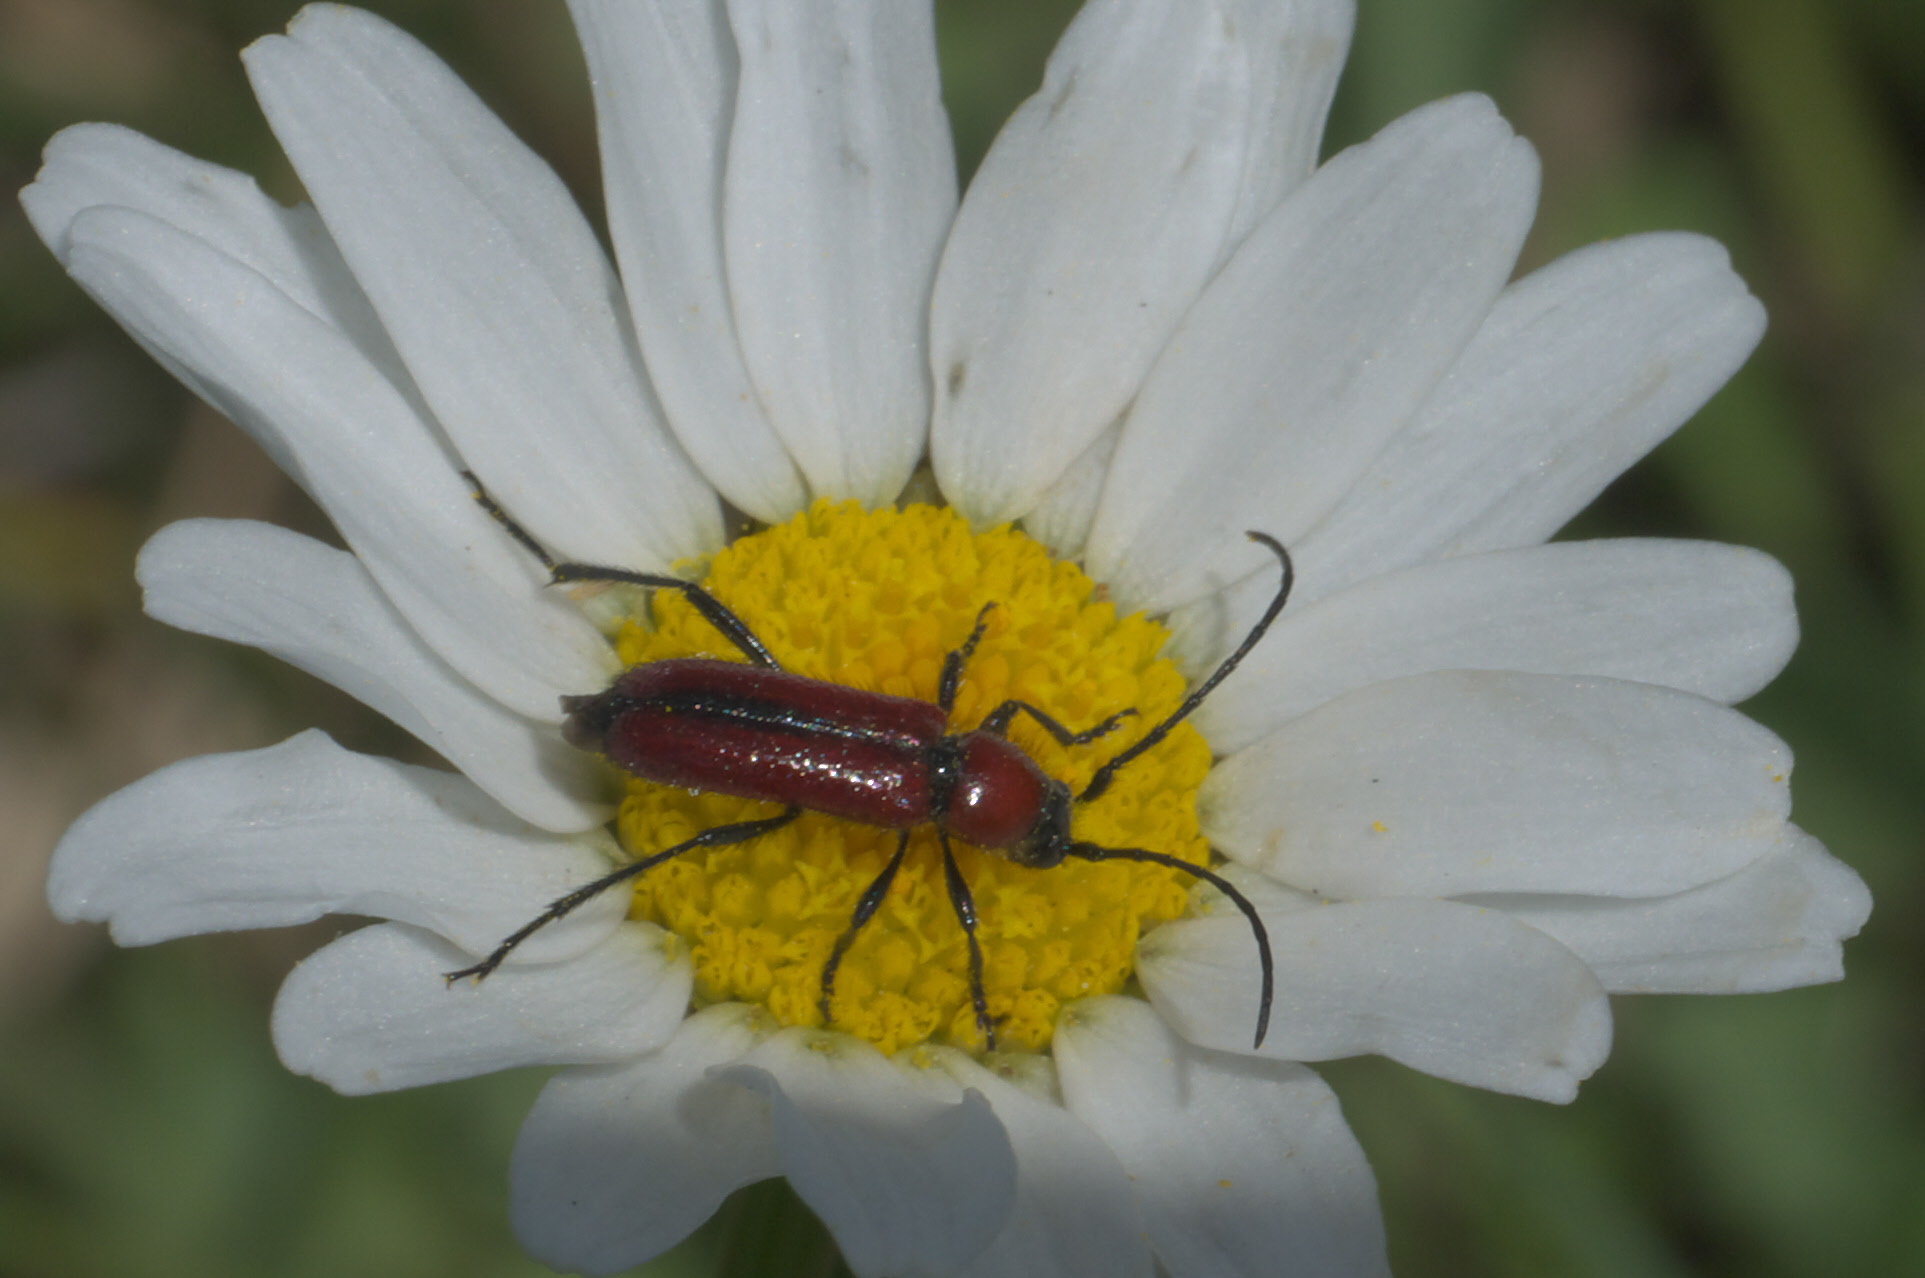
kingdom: Animalia
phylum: Arthropoda
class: Insecta
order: Coleoptera
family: Cerambycidae
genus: Batyle
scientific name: Batyle suturalis
